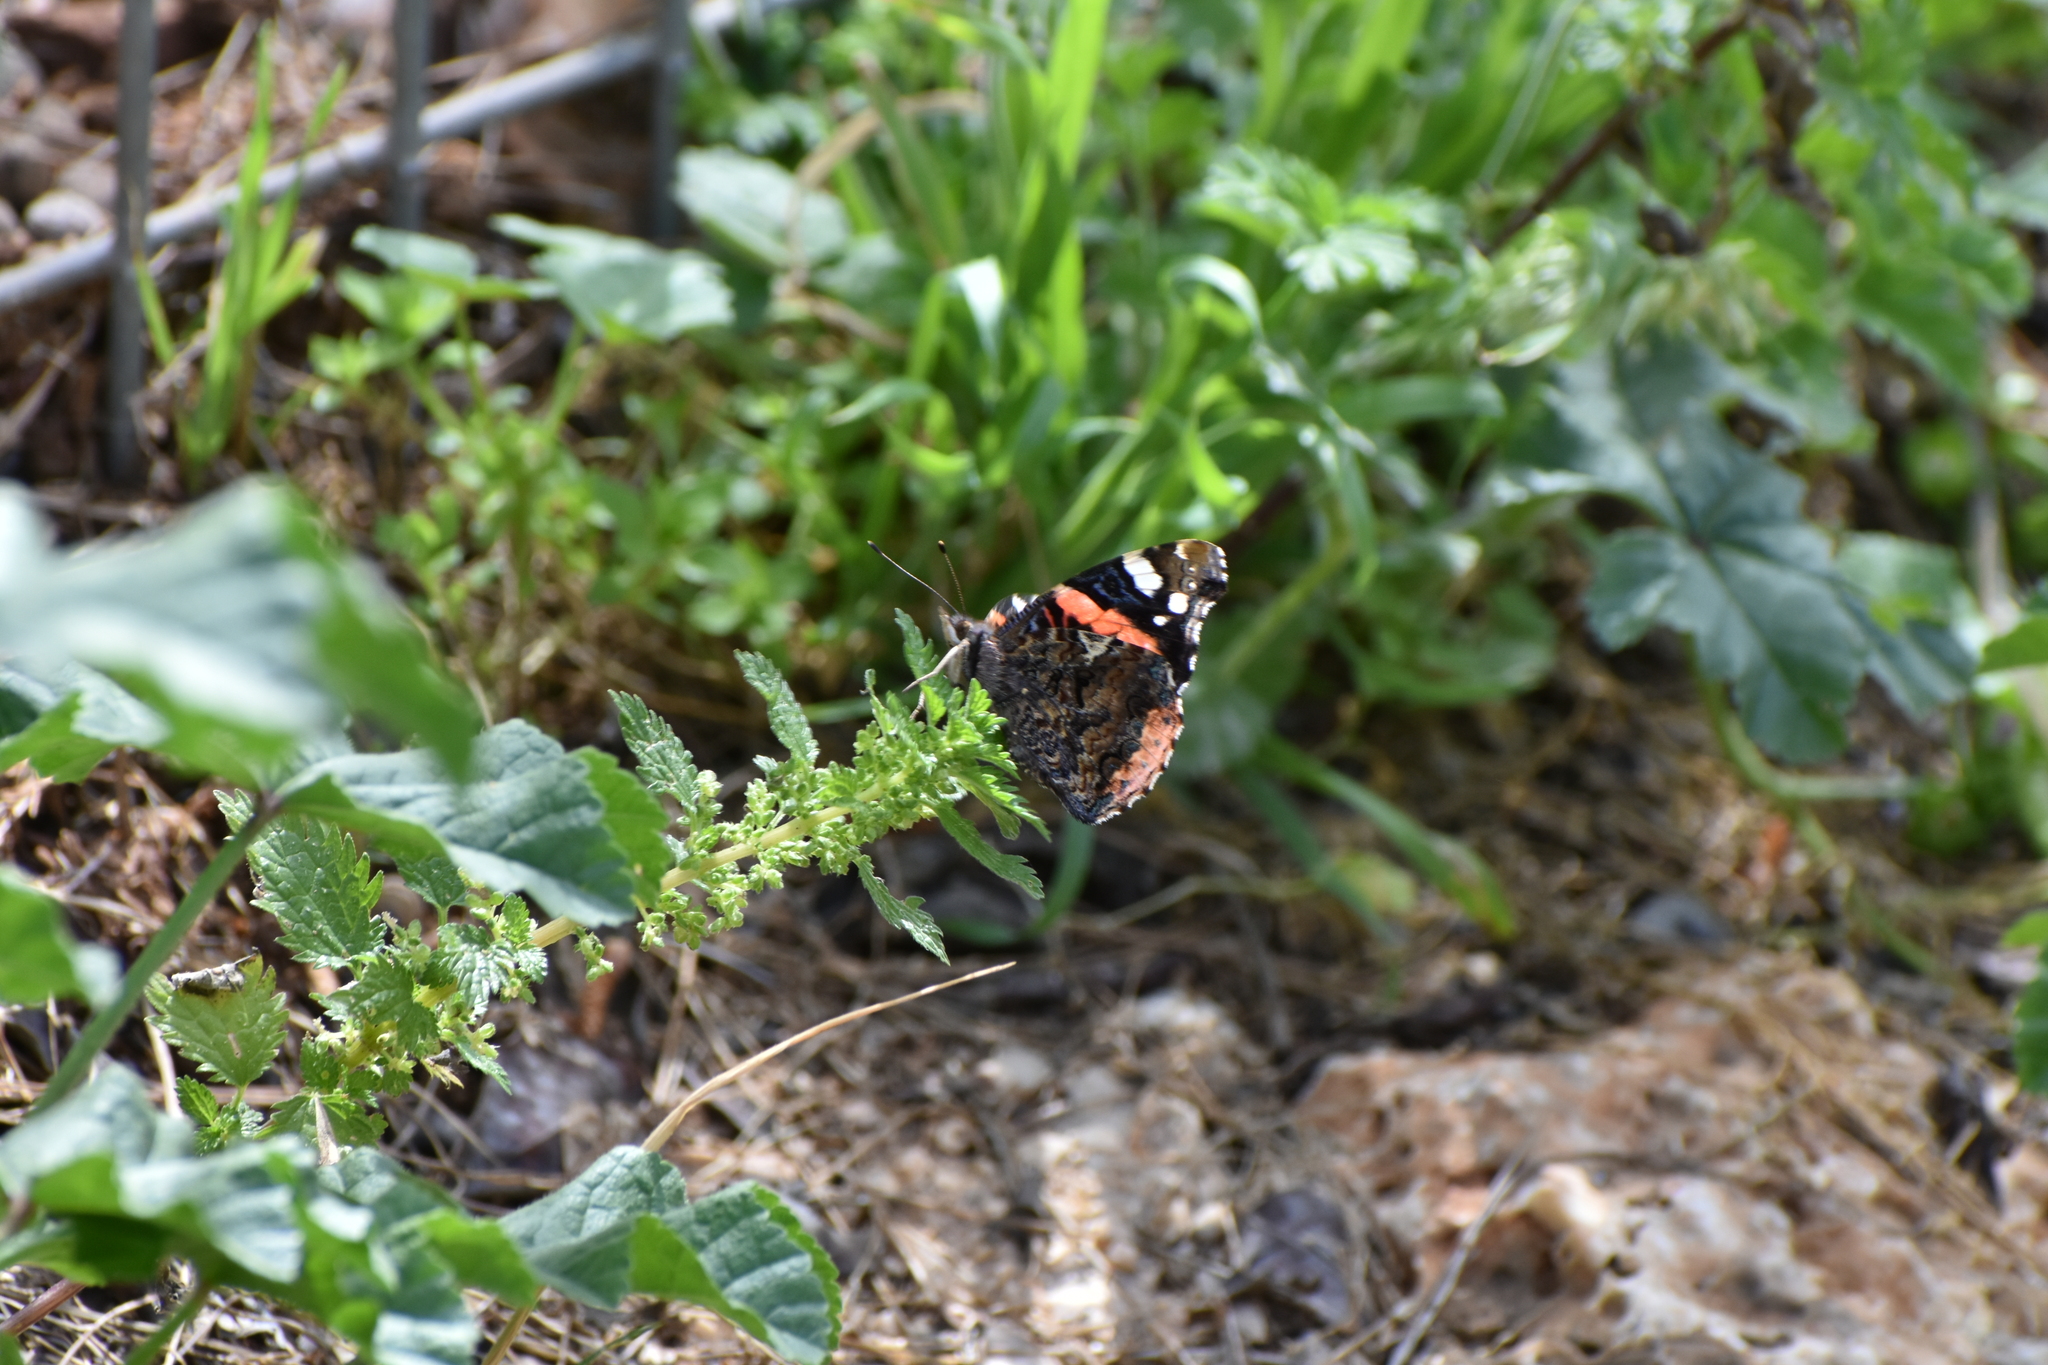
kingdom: Animalia
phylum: Arthropoda
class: Insecta
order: Lepidoptera
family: Nymphalidae
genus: Vanessa
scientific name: Vanessa atalanta
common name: Red admiral
